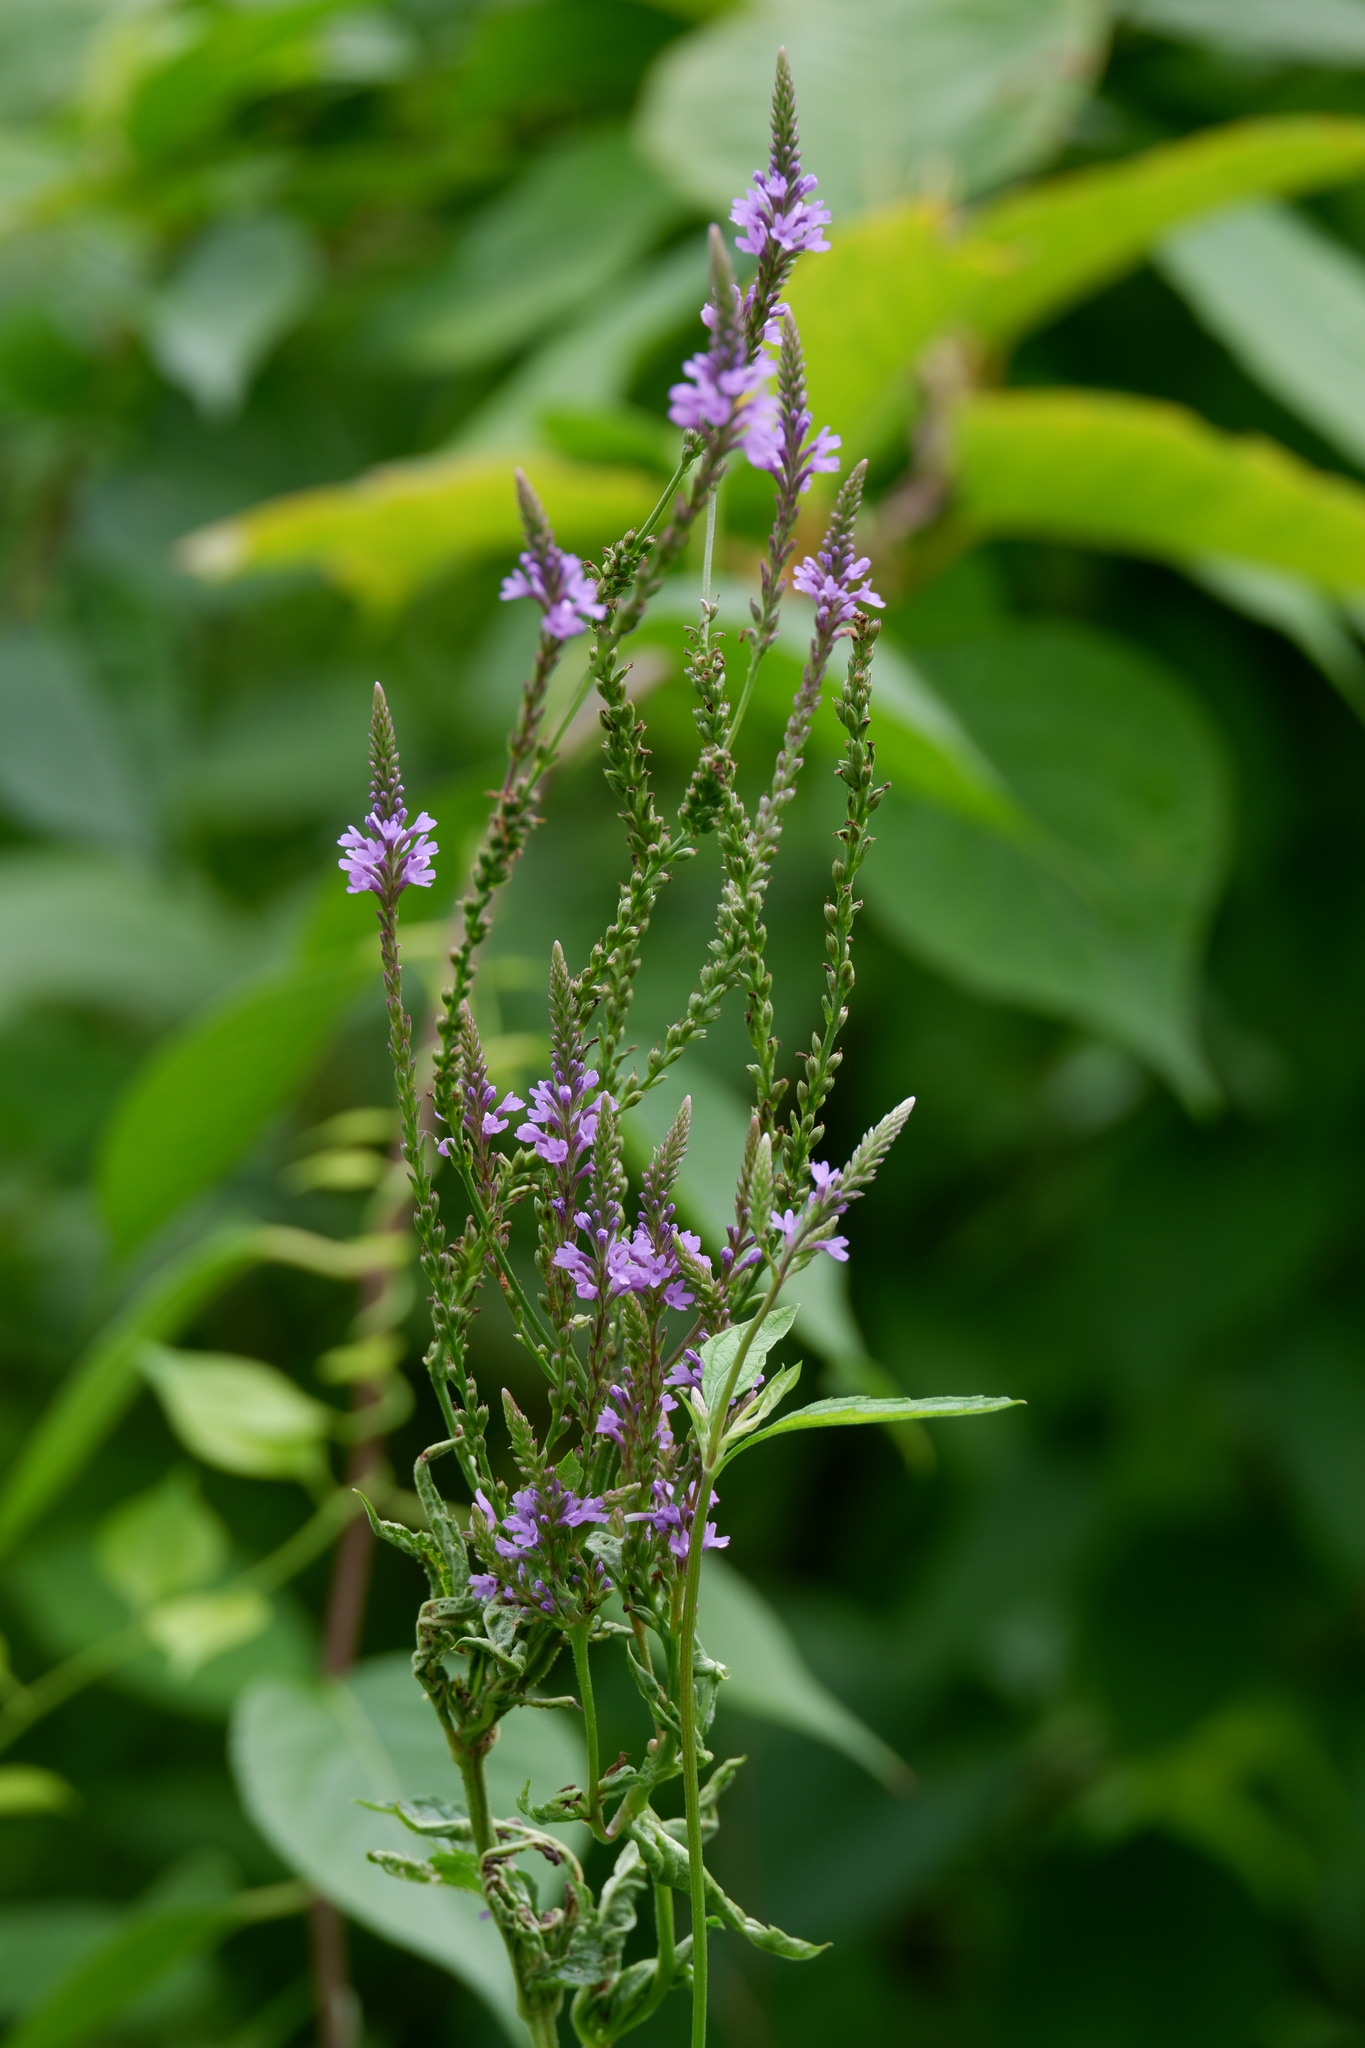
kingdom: Plantae
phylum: Tracheophyta
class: Magnoliopsida
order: Lamiales
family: Verbenaceae
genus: Verbena
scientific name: Verbena hastata
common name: American blue vervain
